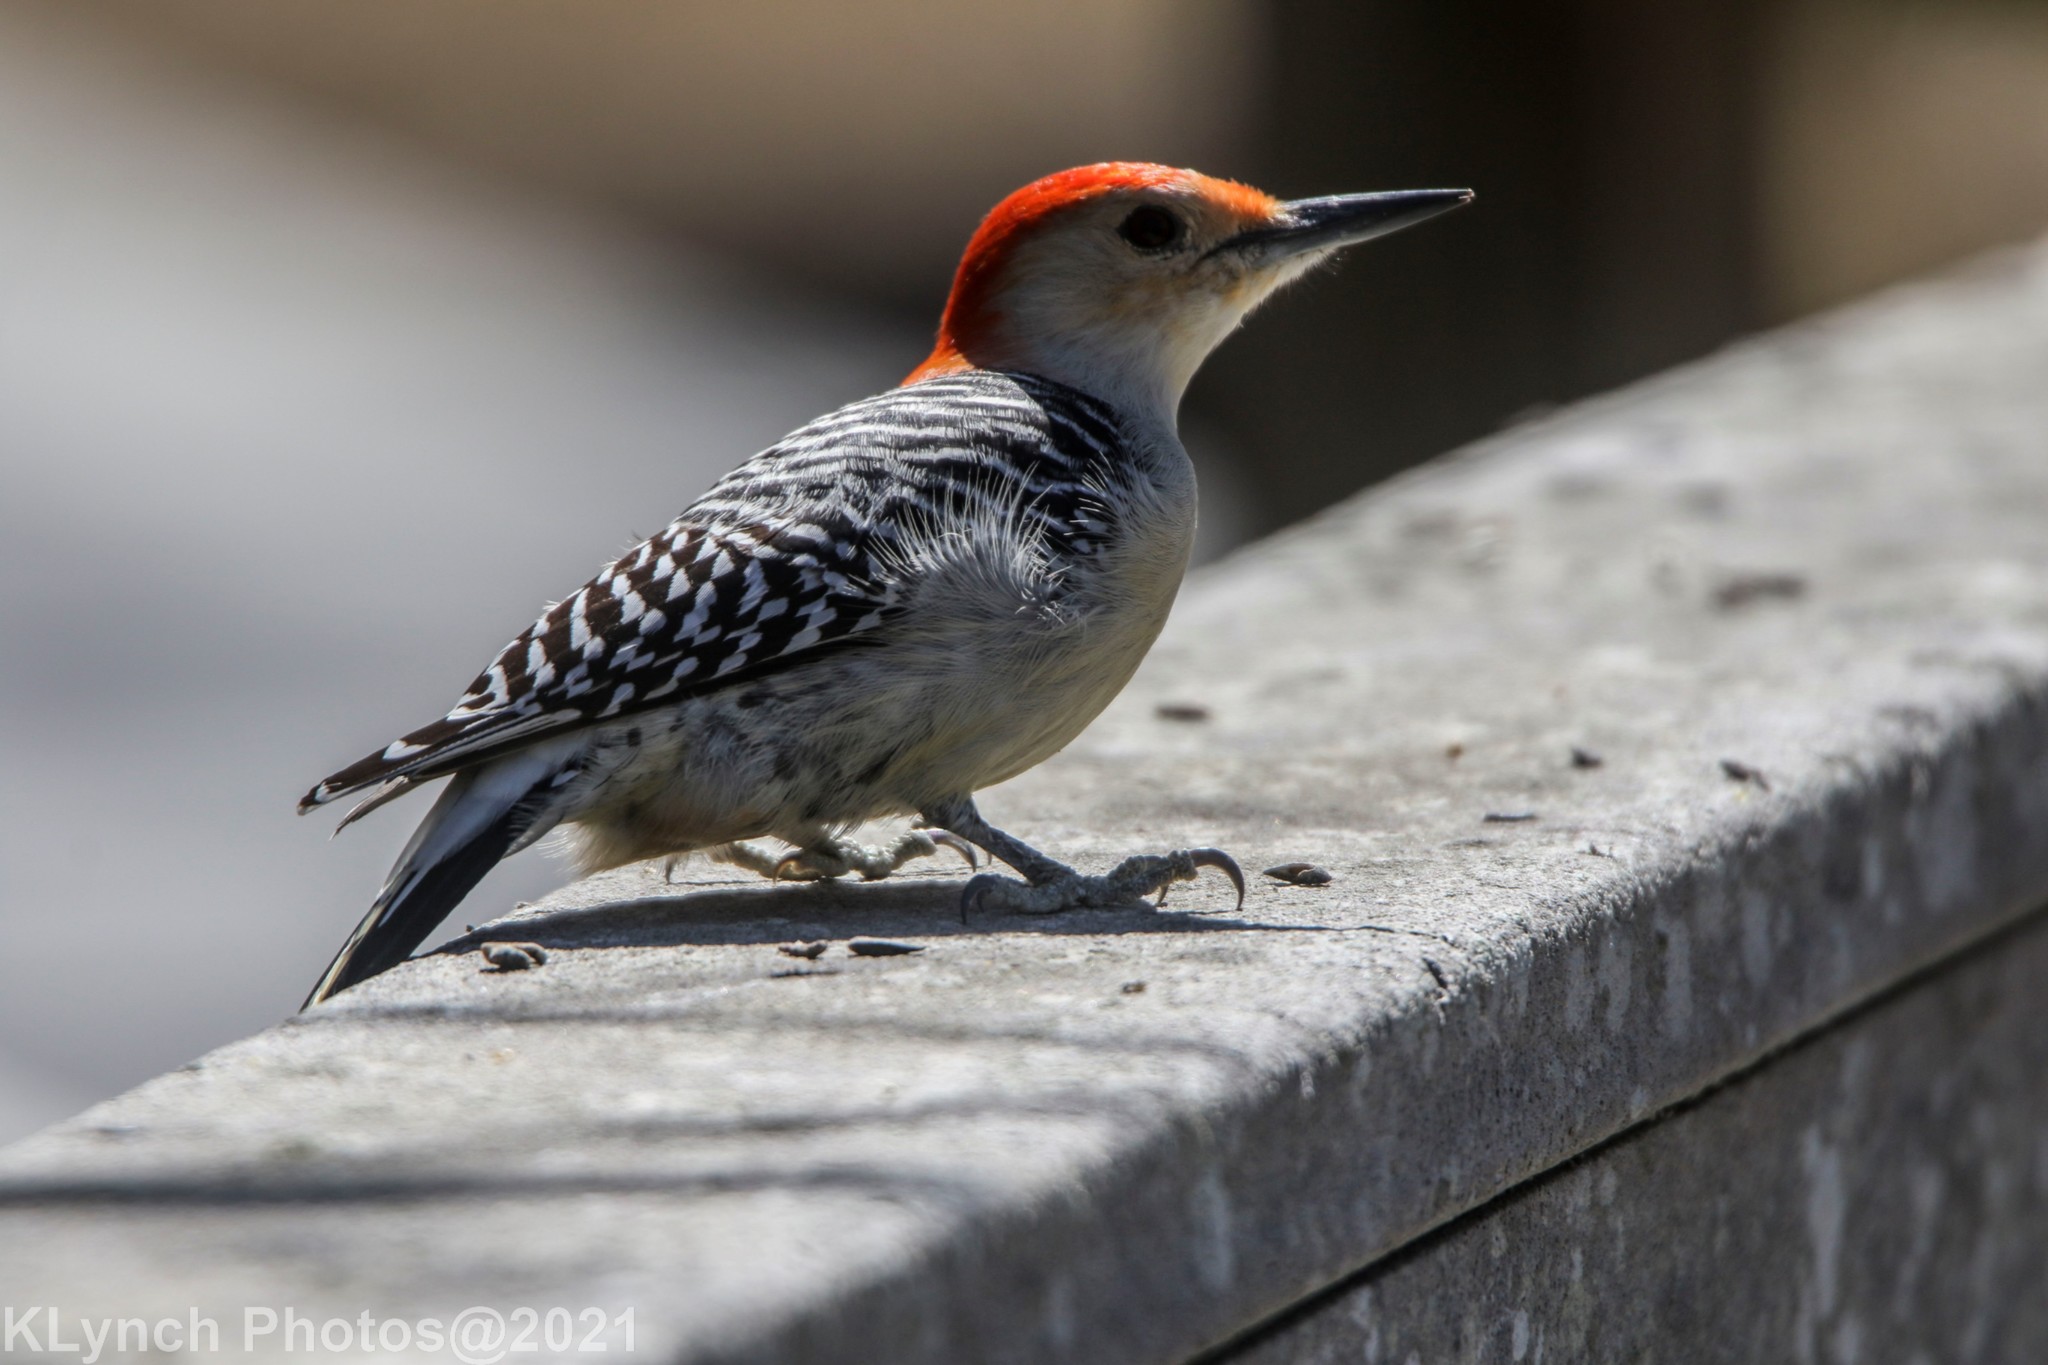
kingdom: Animalia
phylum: Chordata
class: Aves
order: Piciformes
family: Picidae
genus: Melanerpes
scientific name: Melanerpes carolinus
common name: Red-bellied woodpecker
